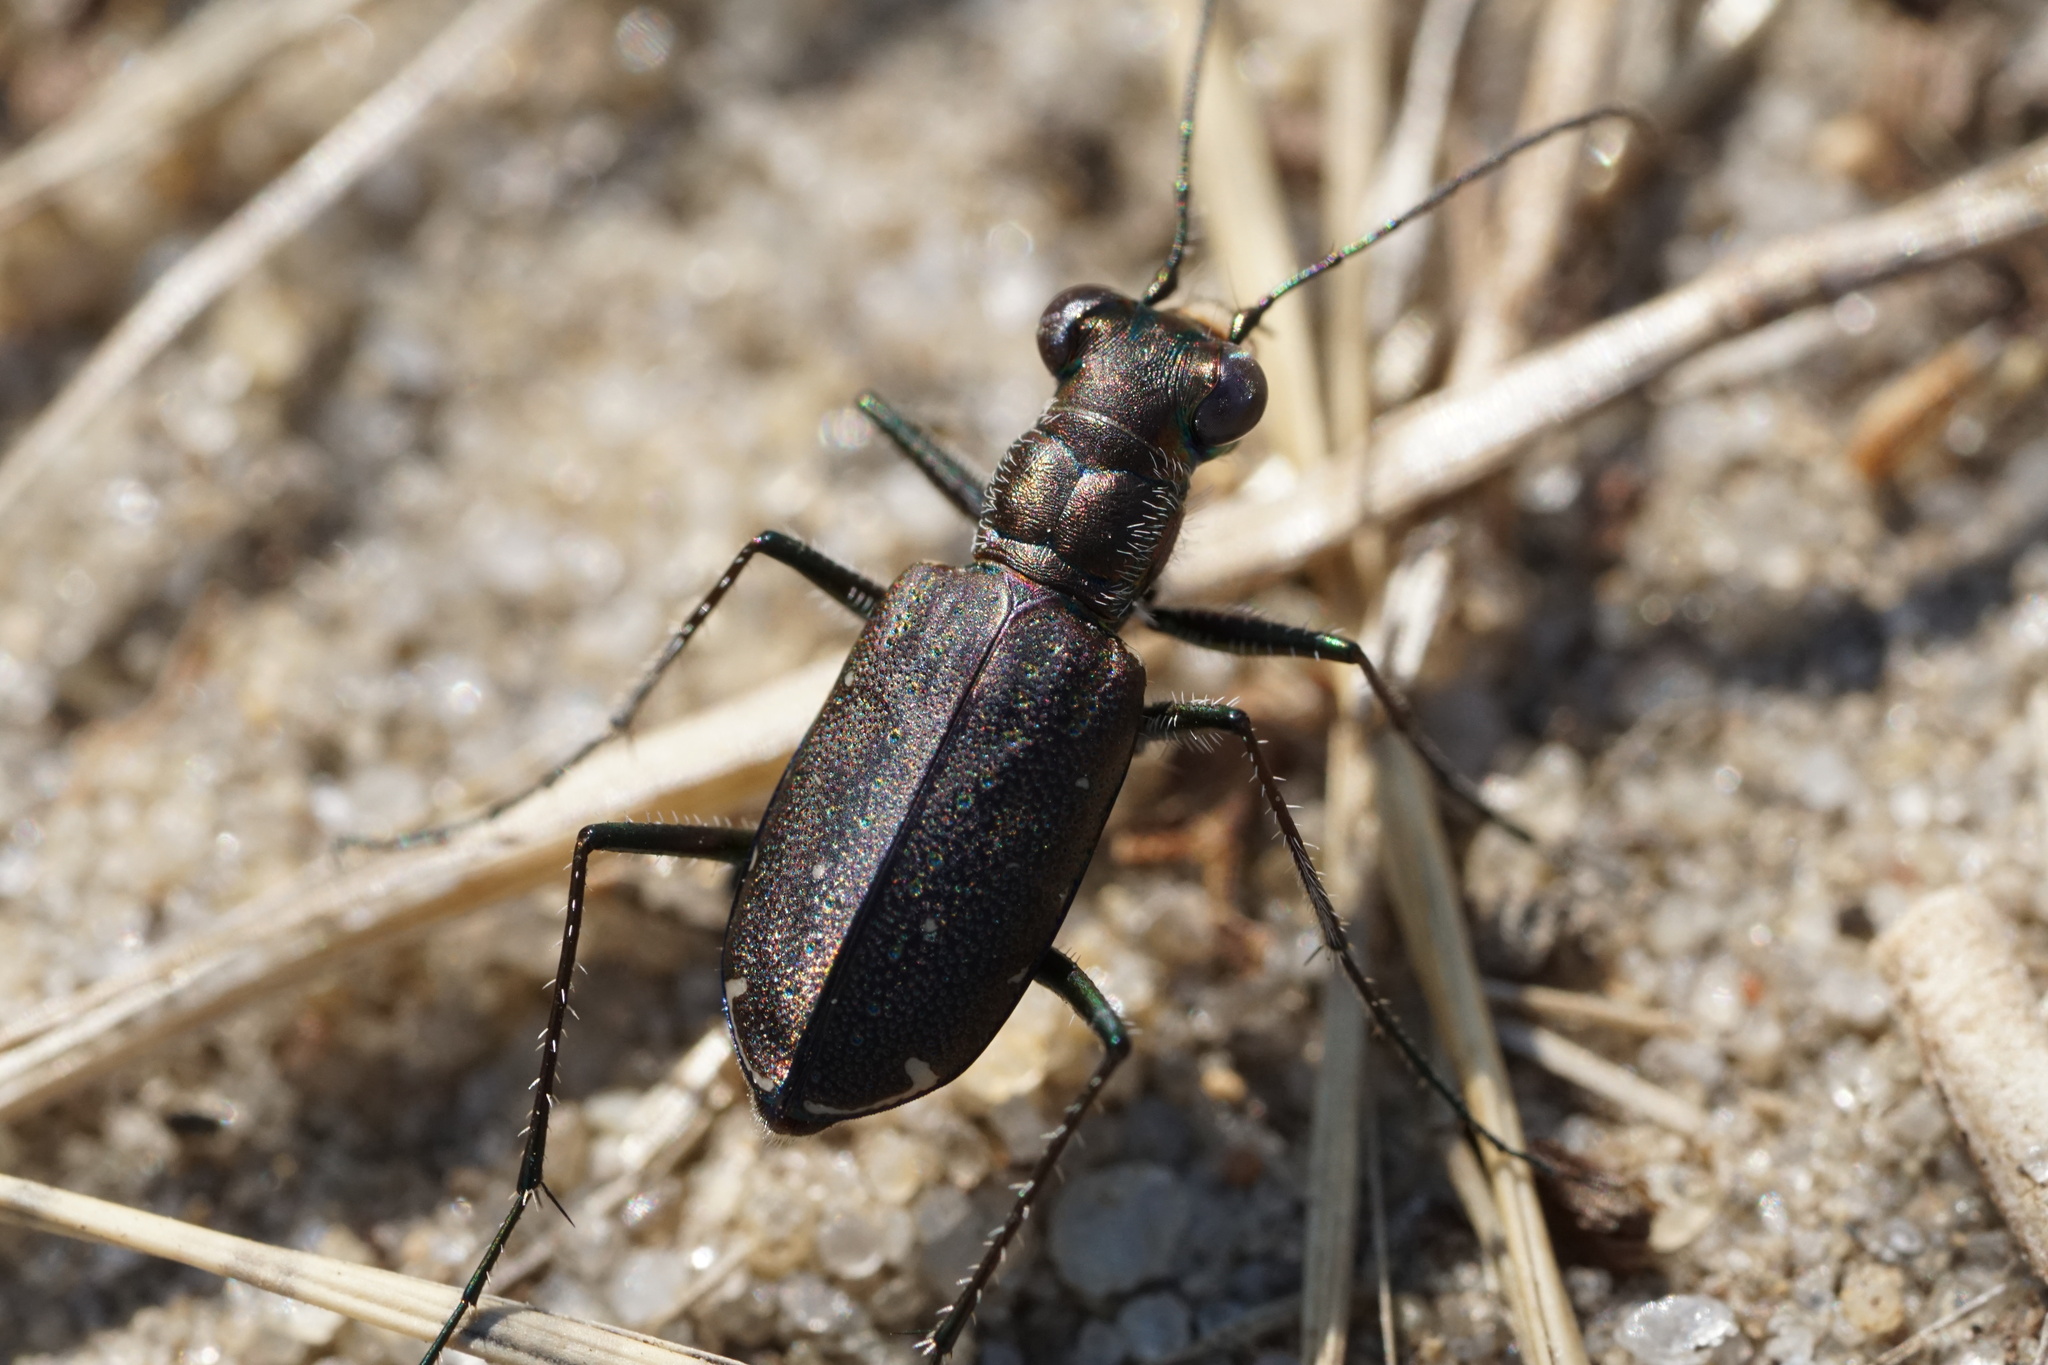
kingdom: Animalia
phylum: Arthropoda
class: Insecta
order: Coleoptera
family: Carabidae
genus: Cicindela
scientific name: Cicindela punctulata
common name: Punctured tiger beetle
